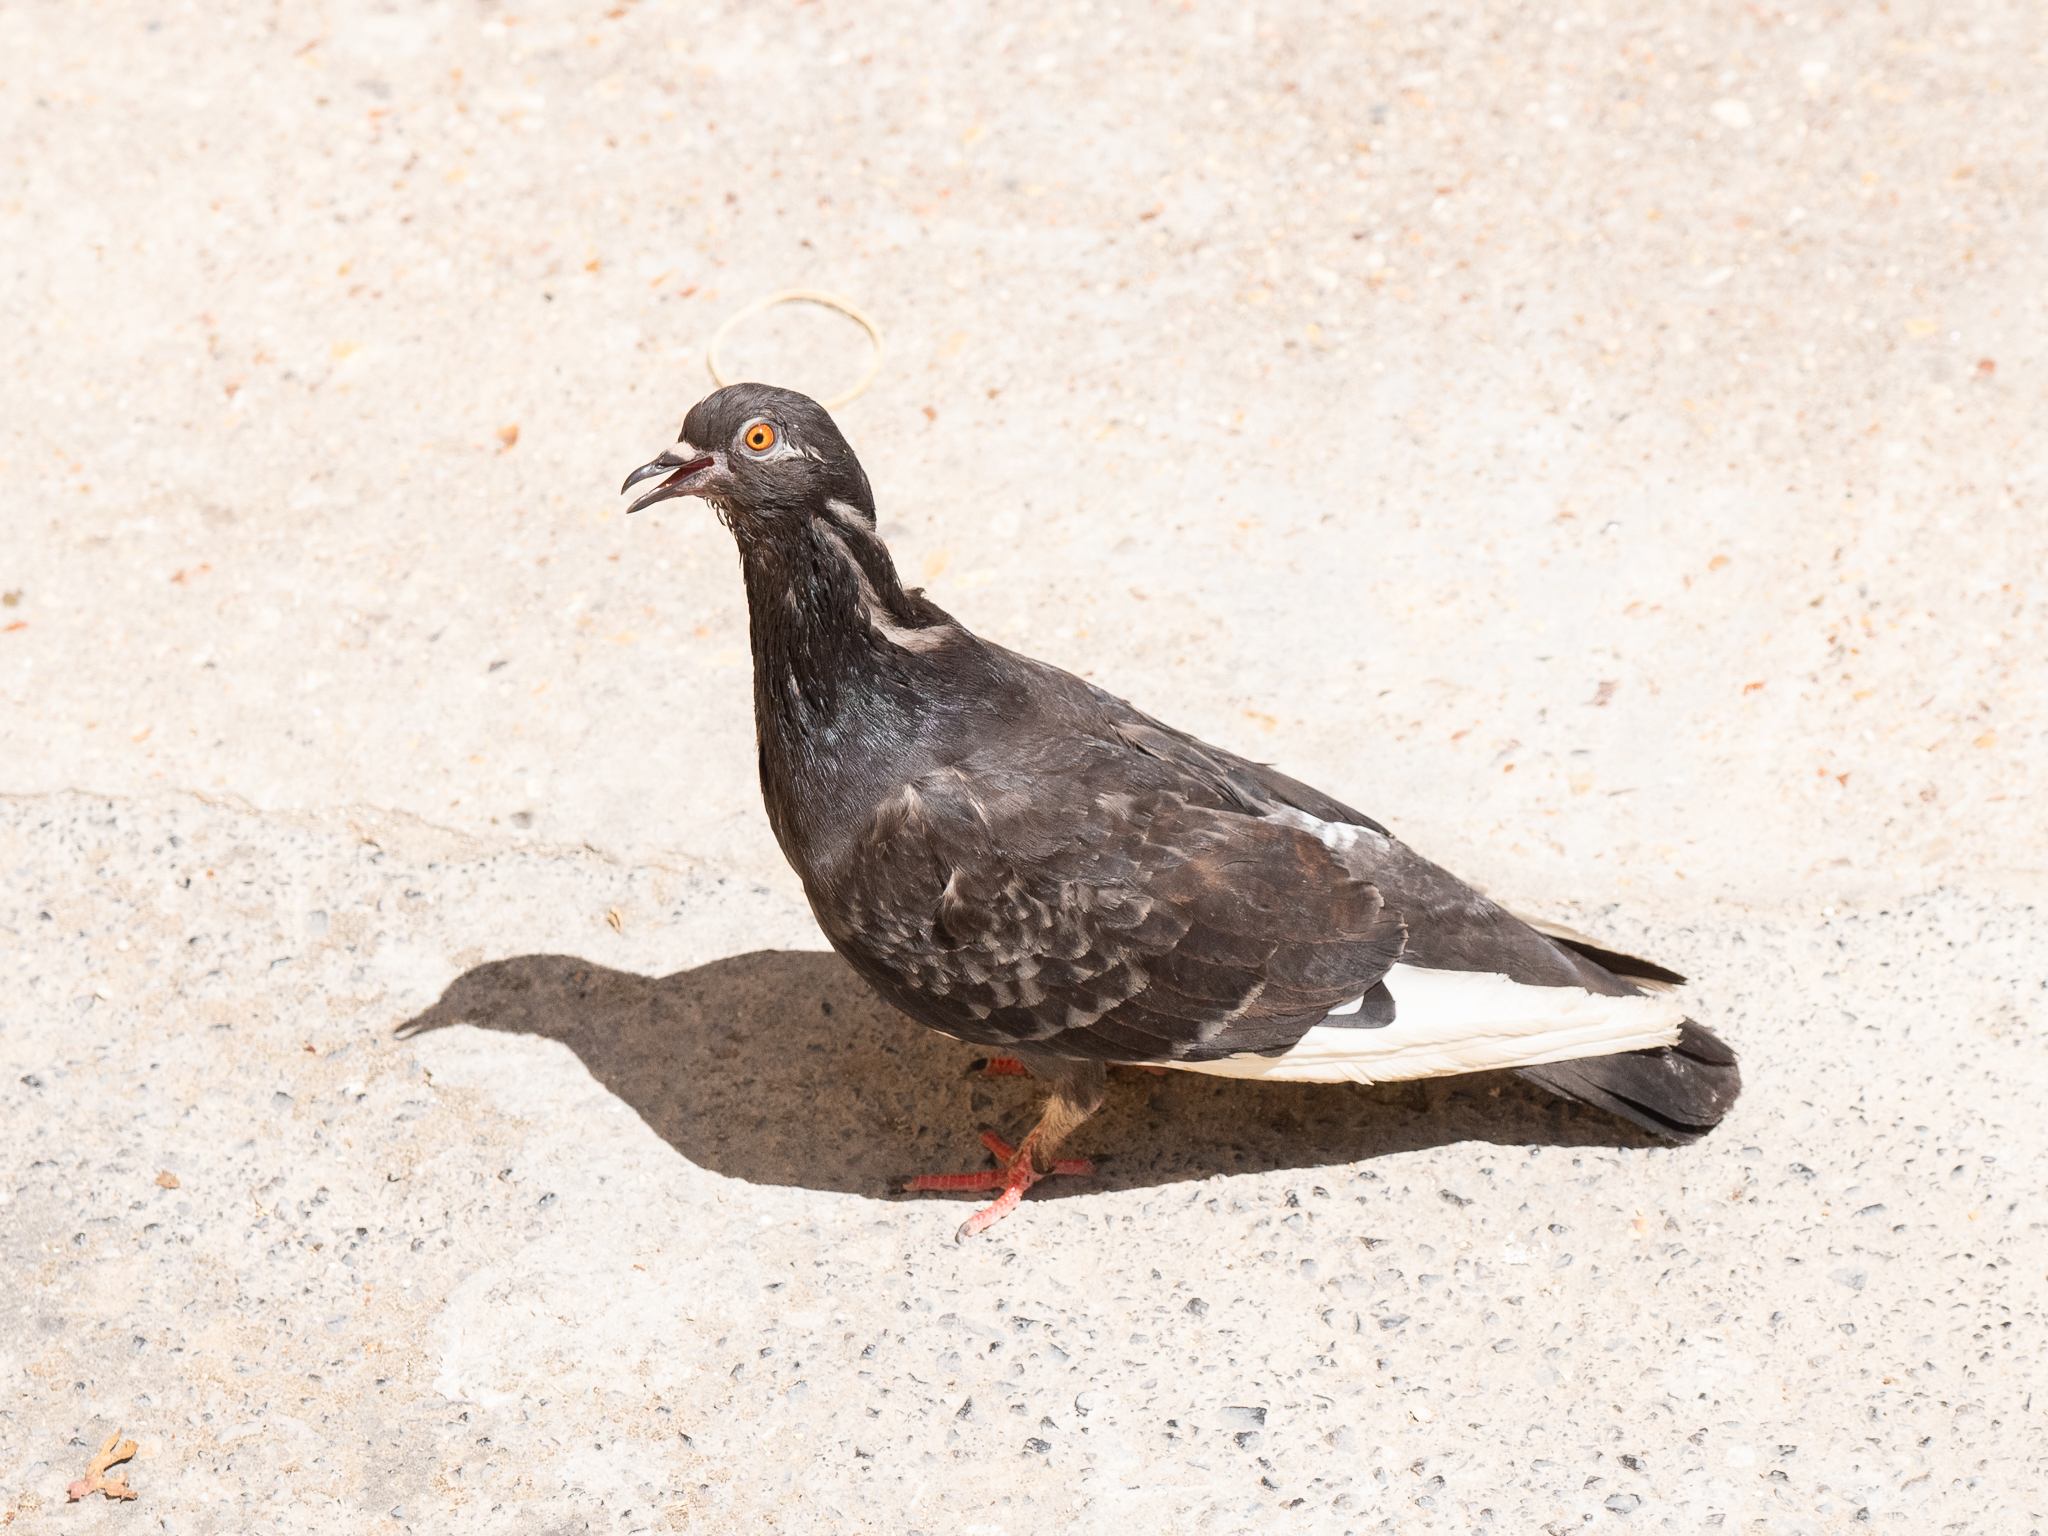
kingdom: Animalia
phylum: Chordata
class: Aves
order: Columbiformes
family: Columbidae
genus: Columba
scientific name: Columba livia
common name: Rock pigeon
